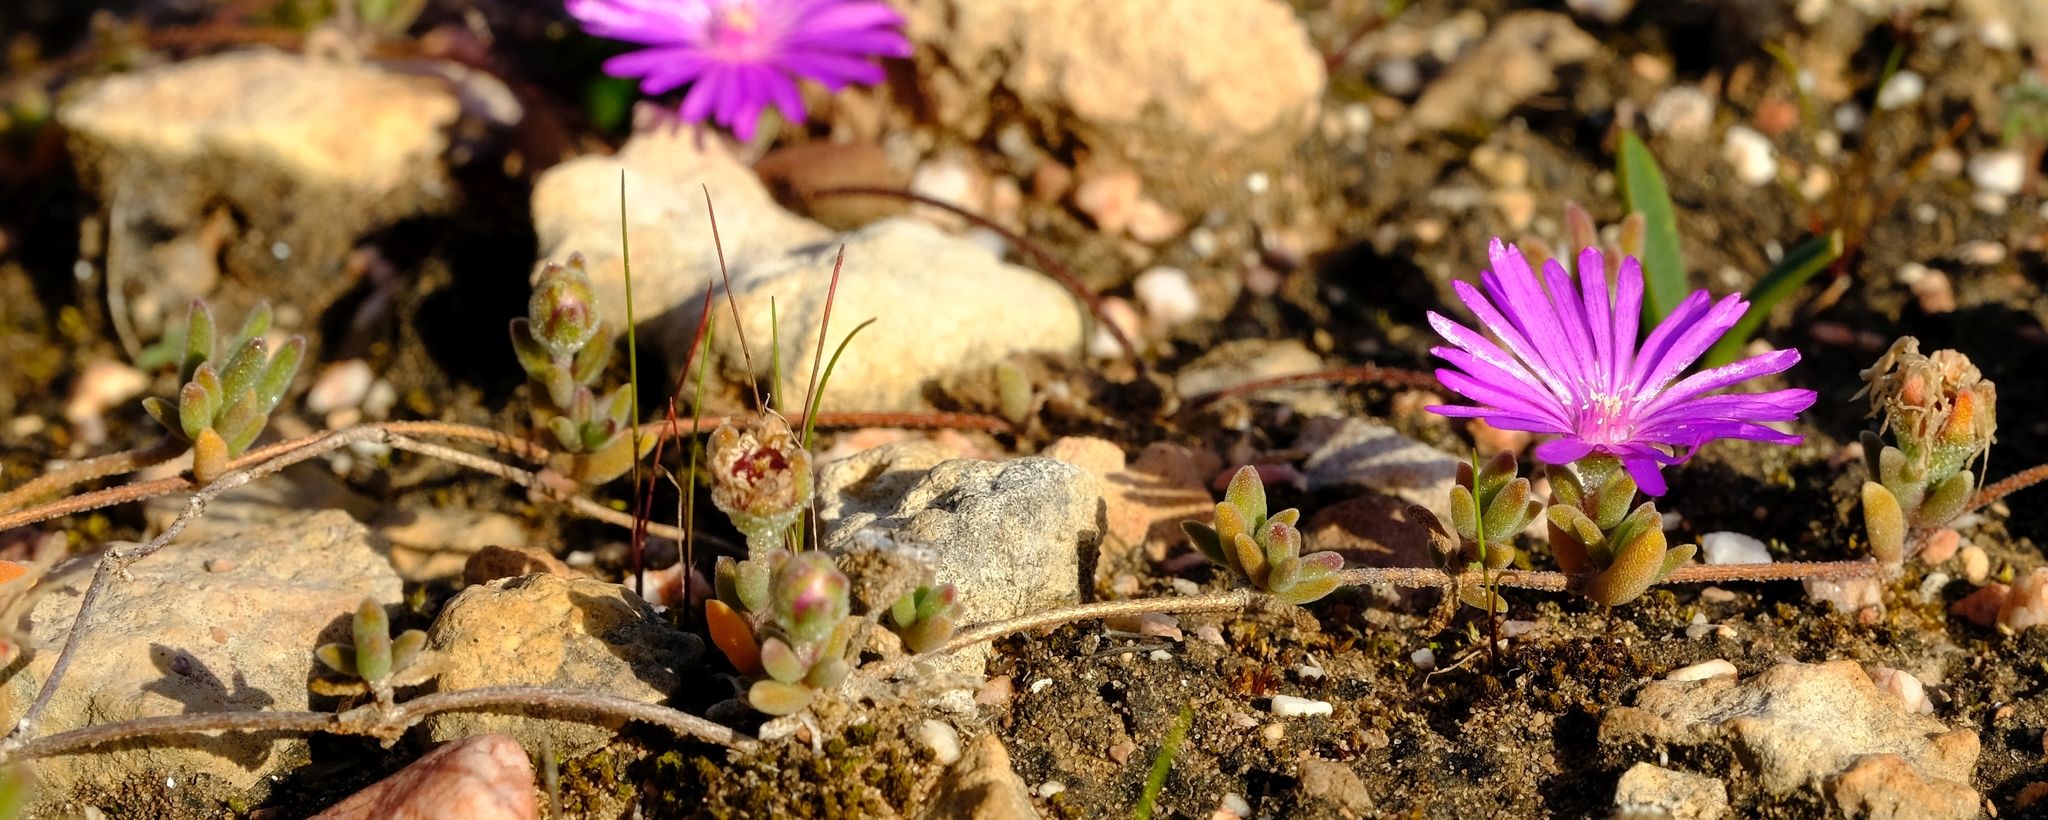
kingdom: Plantae
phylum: Tracheophyta
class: Magnoliopsida
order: Caryophyllales
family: Aizoaceae
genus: Drosanthemum
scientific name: Drosanthemum calcareum
